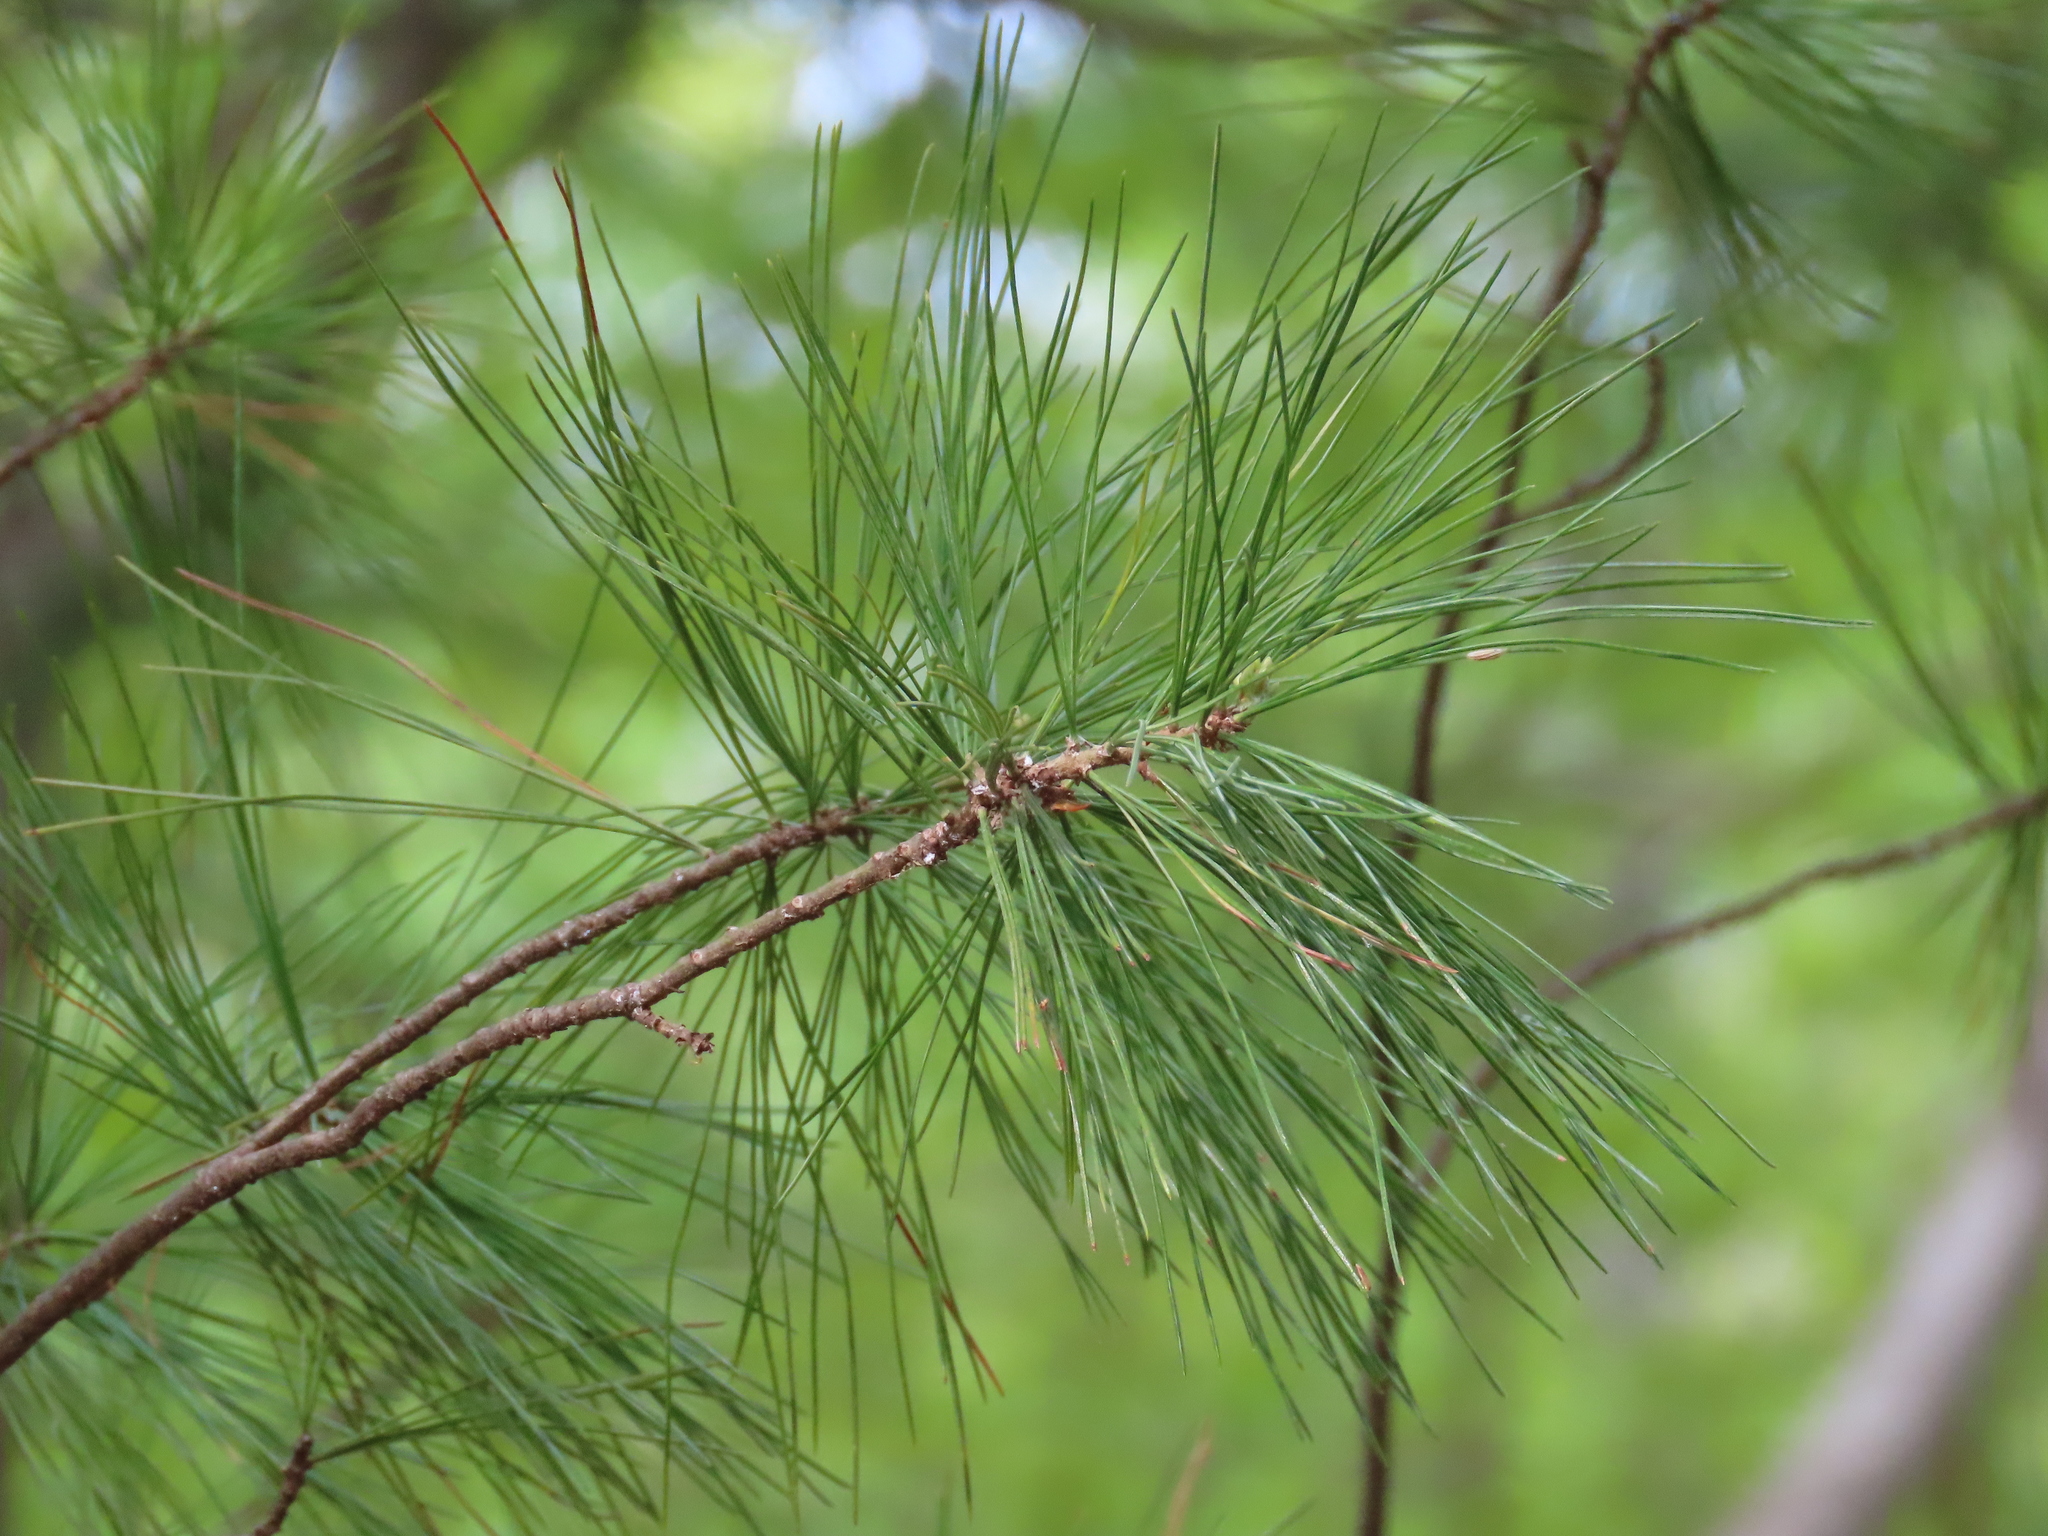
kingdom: Plantae
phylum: Tracheophyta
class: Pinopsida
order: Pinales
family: Pinaceae
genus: Pinus
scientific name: Pinus strobus
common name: Weymouth pine
